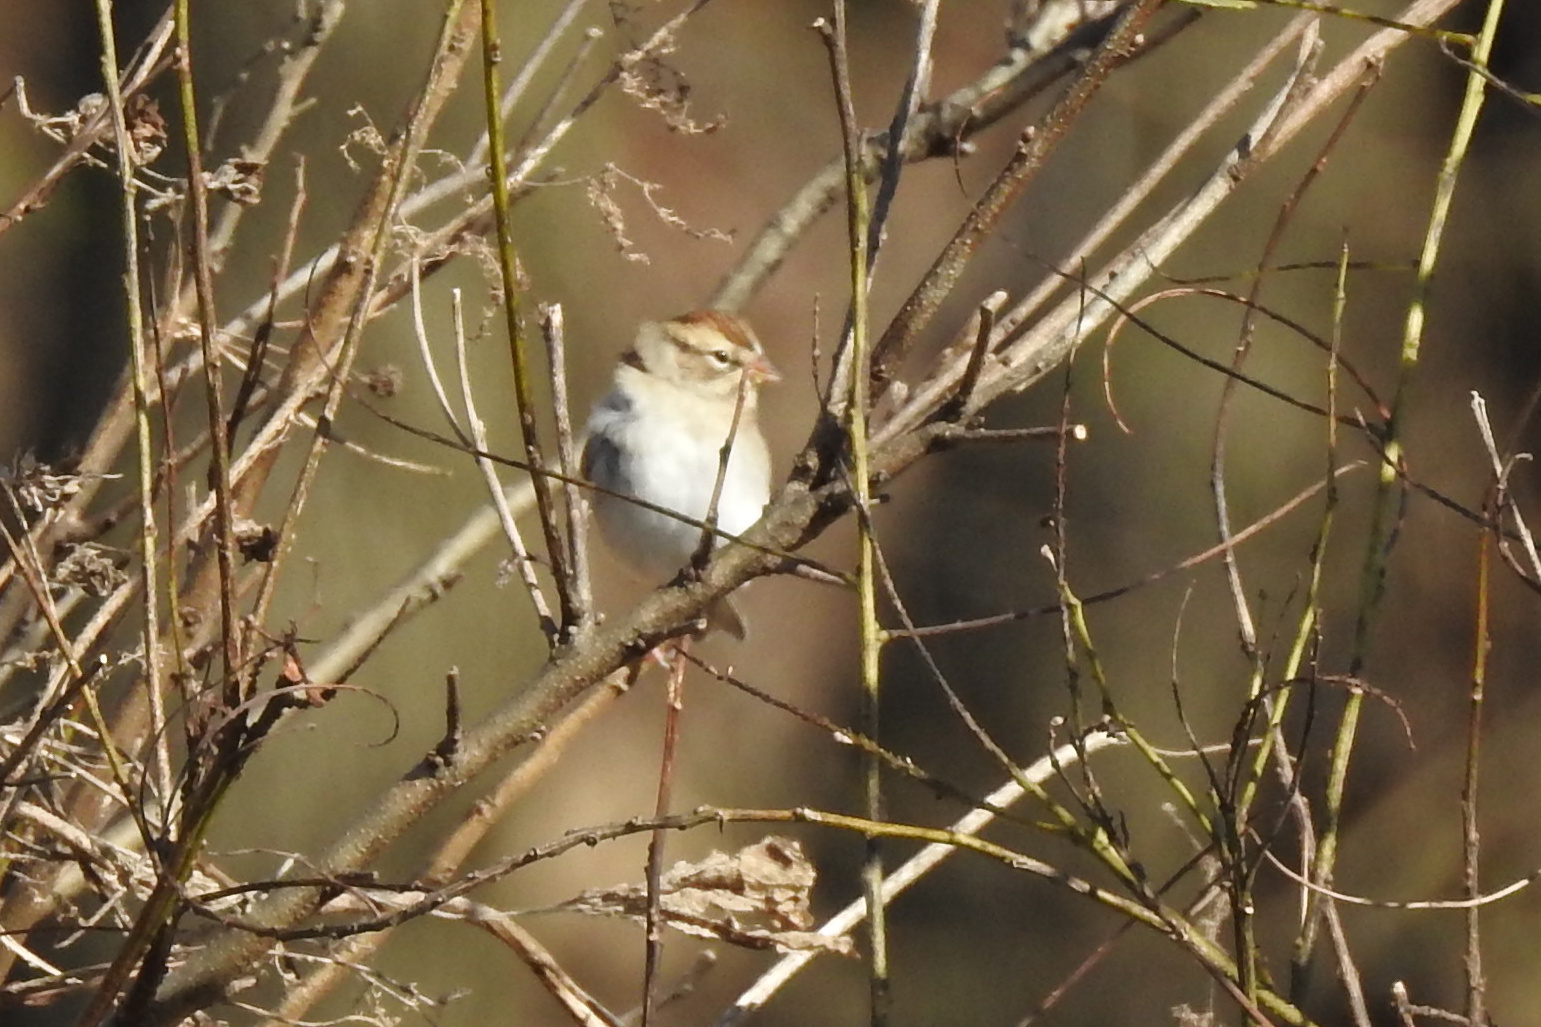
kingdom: Animalia
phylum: Chordata
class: Aves
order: Passeriformes
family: Passerellidae
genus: Spizella
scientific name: Spizella passerina
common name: Chipping sparrow
